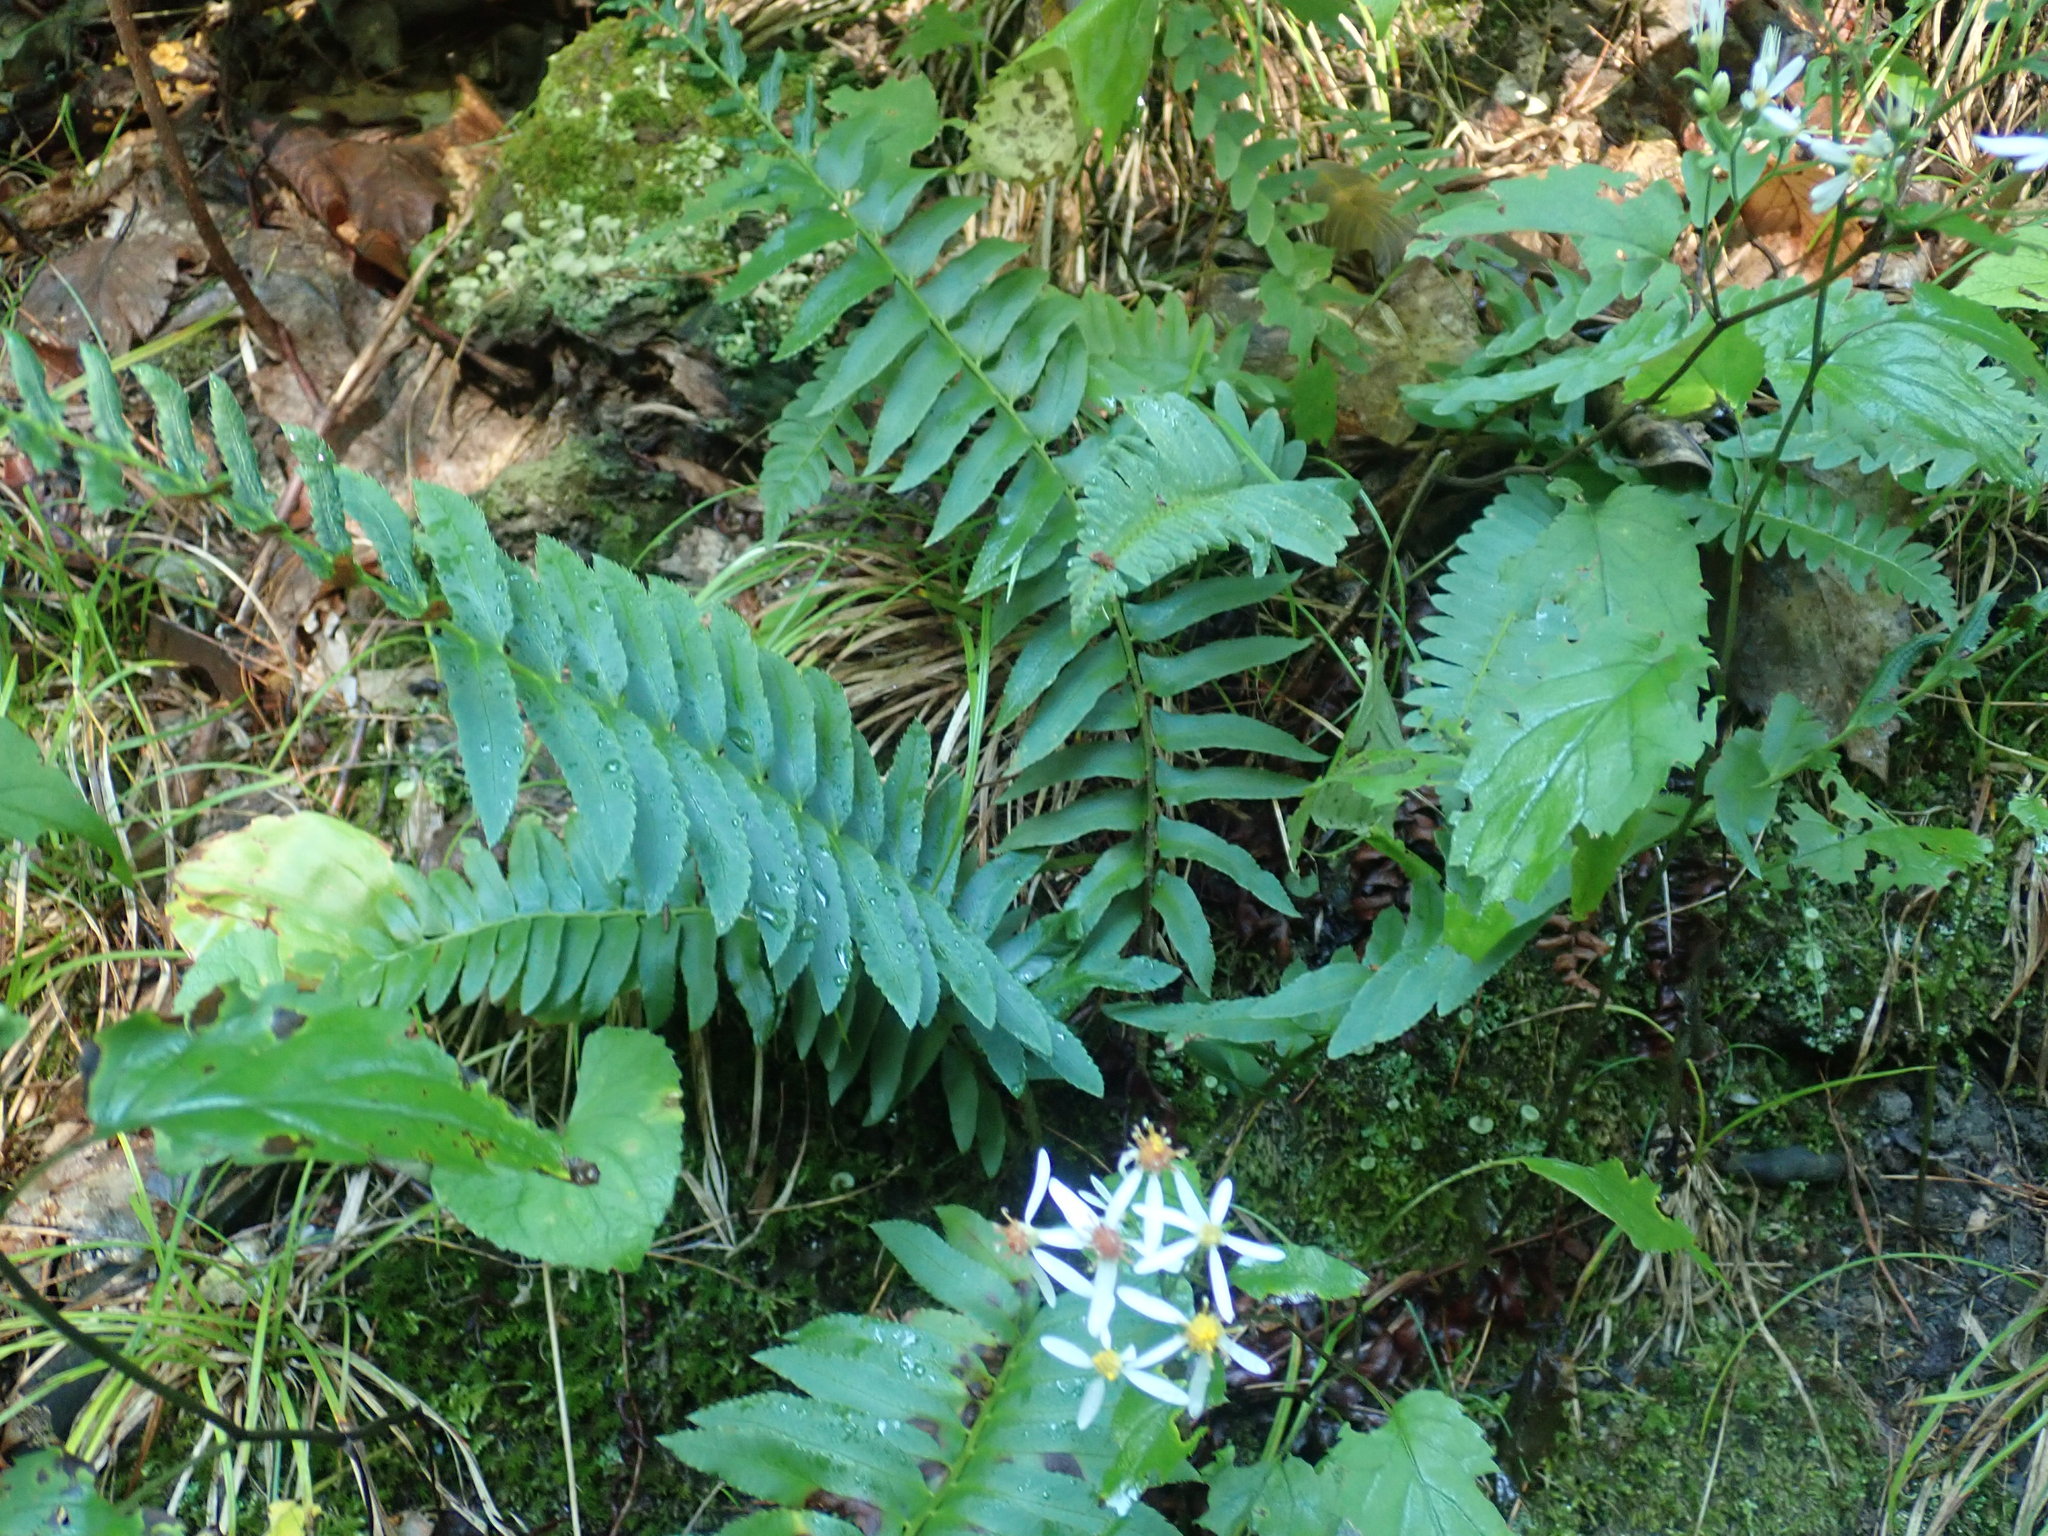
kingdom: Plantae
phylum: Tracheophyta
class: Polypodiopsida
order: Polypodiales
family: Dryopteridaceae
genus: Polystichum
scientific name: Polystichum acrostichoides
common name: Christmas fern
